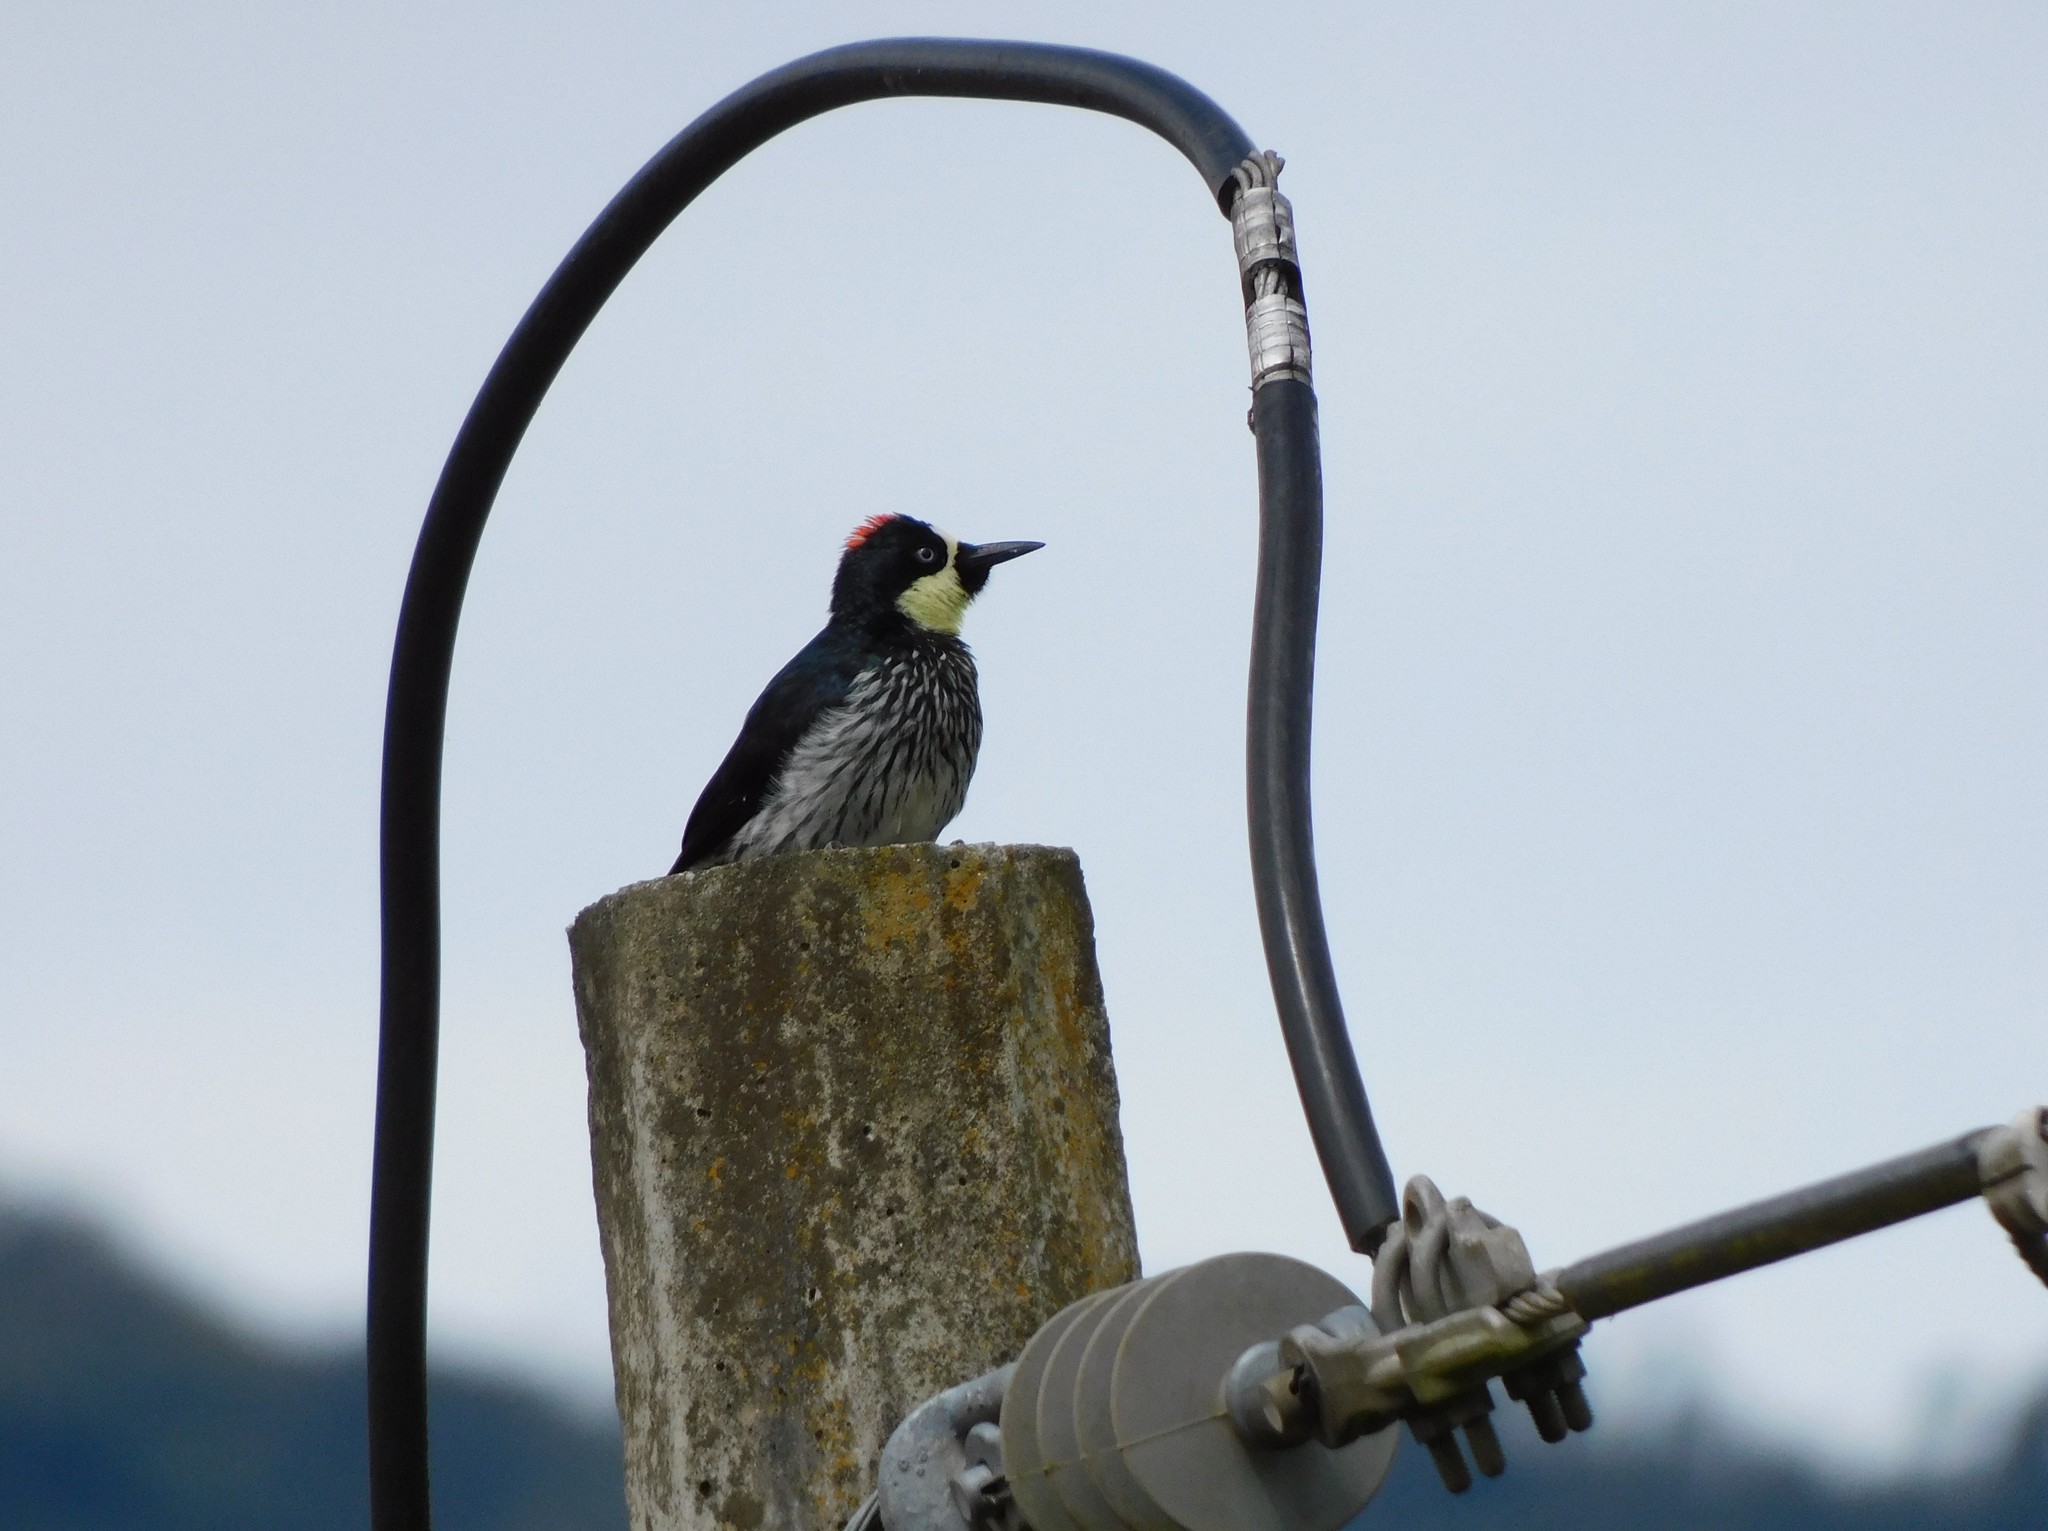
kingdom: Animalia
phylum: Chordata
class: Aves
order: Piciformes
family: Picidae
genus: Melanerpes
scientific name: Melanerpes formicivorus
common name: Acorn woodpecker
